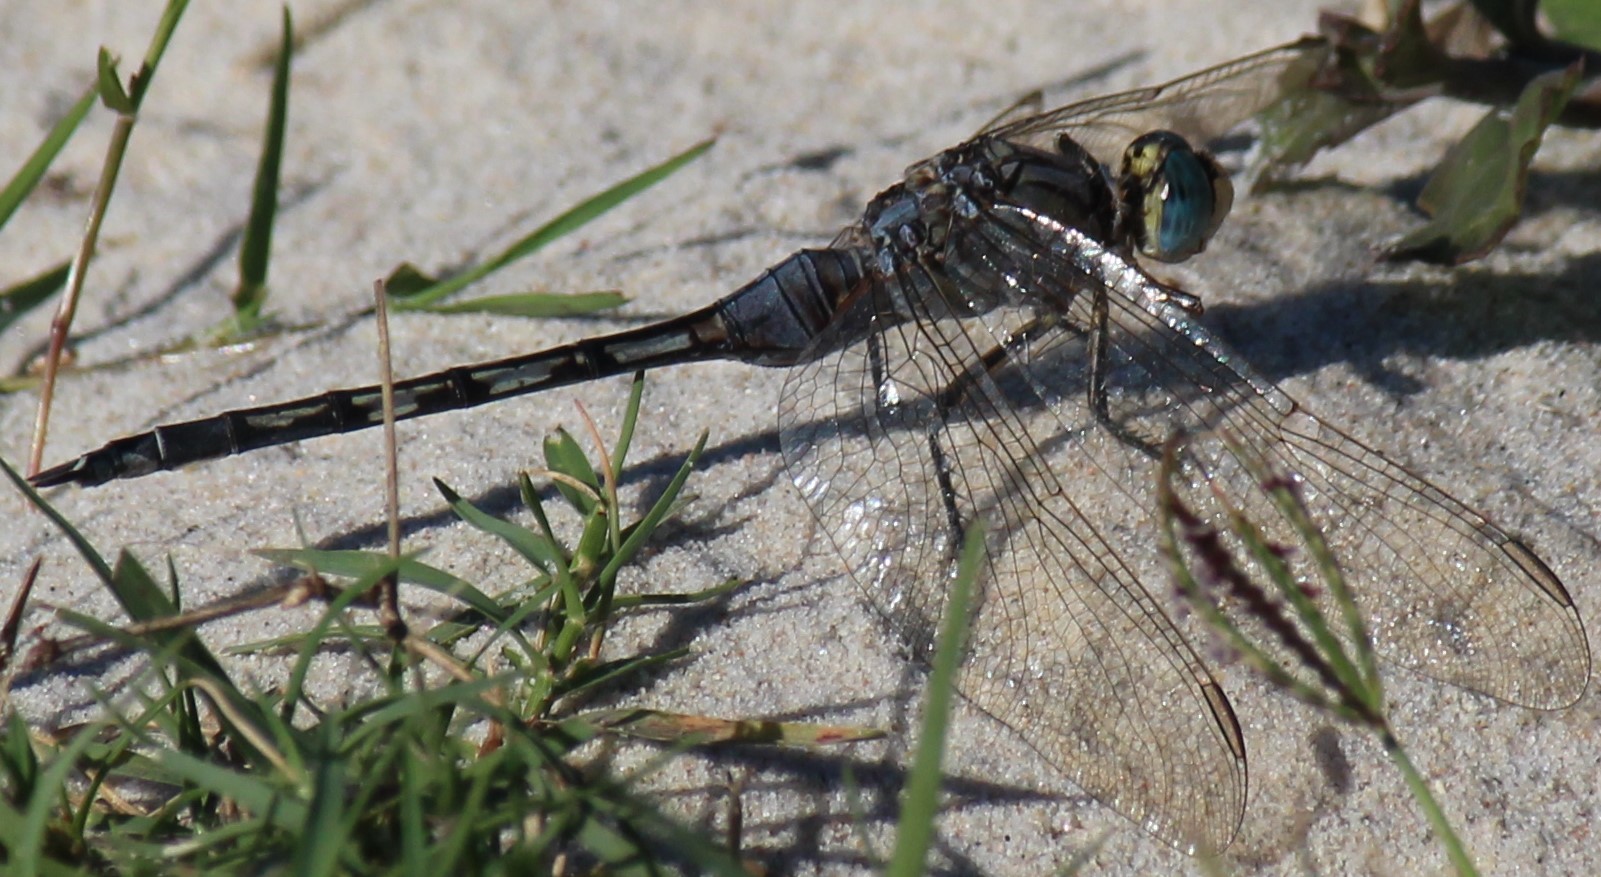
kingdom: Animalia
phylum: Arthropoda
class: Insecta
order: Odonata
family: Libellulidae
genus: Orthetrum
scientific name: Orthetrum trinacria
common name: Long skimmer
